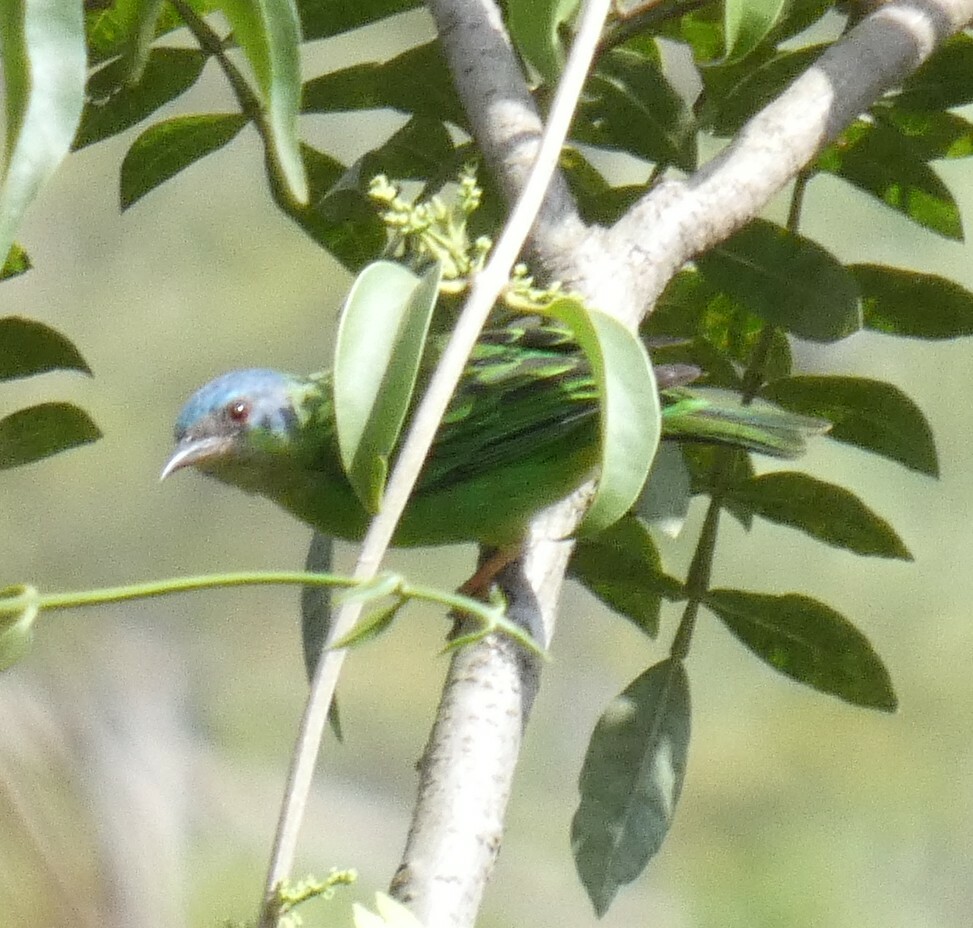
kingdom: Animalia
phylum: Chordata
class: Aves
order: Passeriformes
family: Thraupidae
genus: Dacnis
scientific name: Dacnis cayana
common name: Blue dacnis
